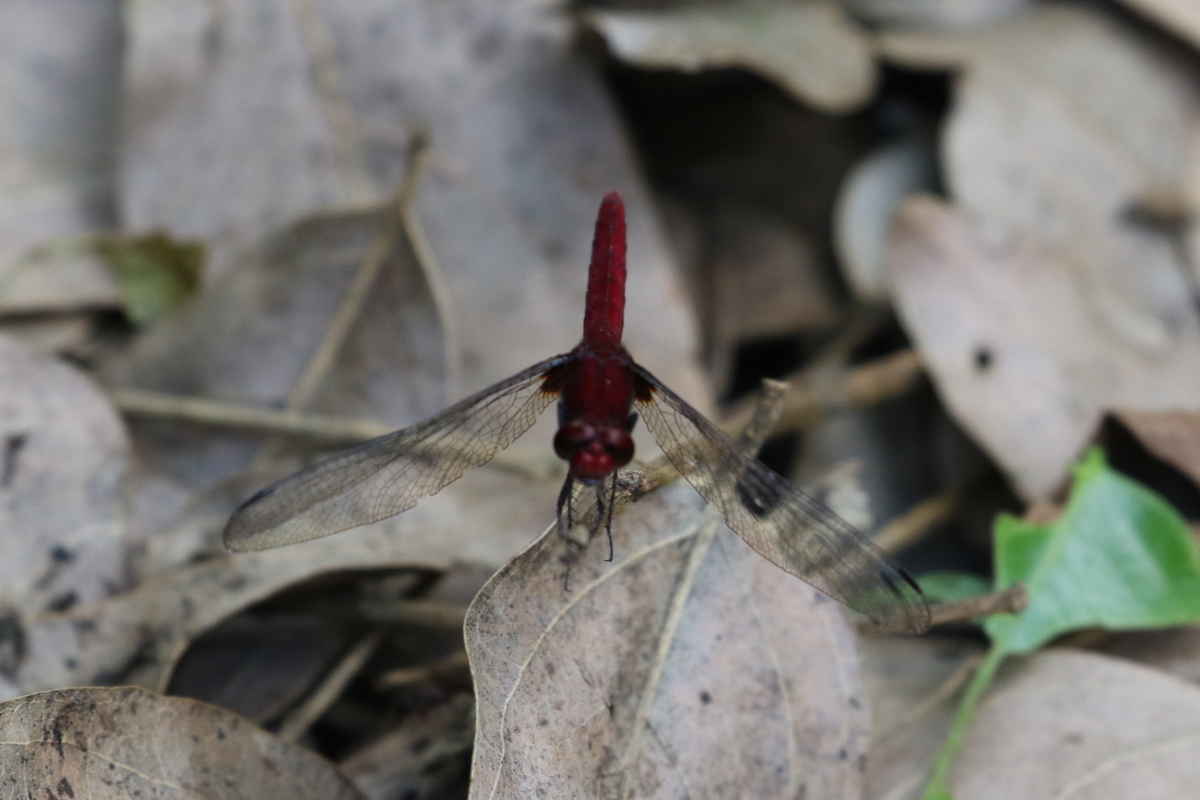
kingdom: Animalia
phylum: Arthropoda
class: Insecta
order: Odonata
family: Libellulidae
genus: Erythrodiplax
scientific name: Erythrodiplax castanea
